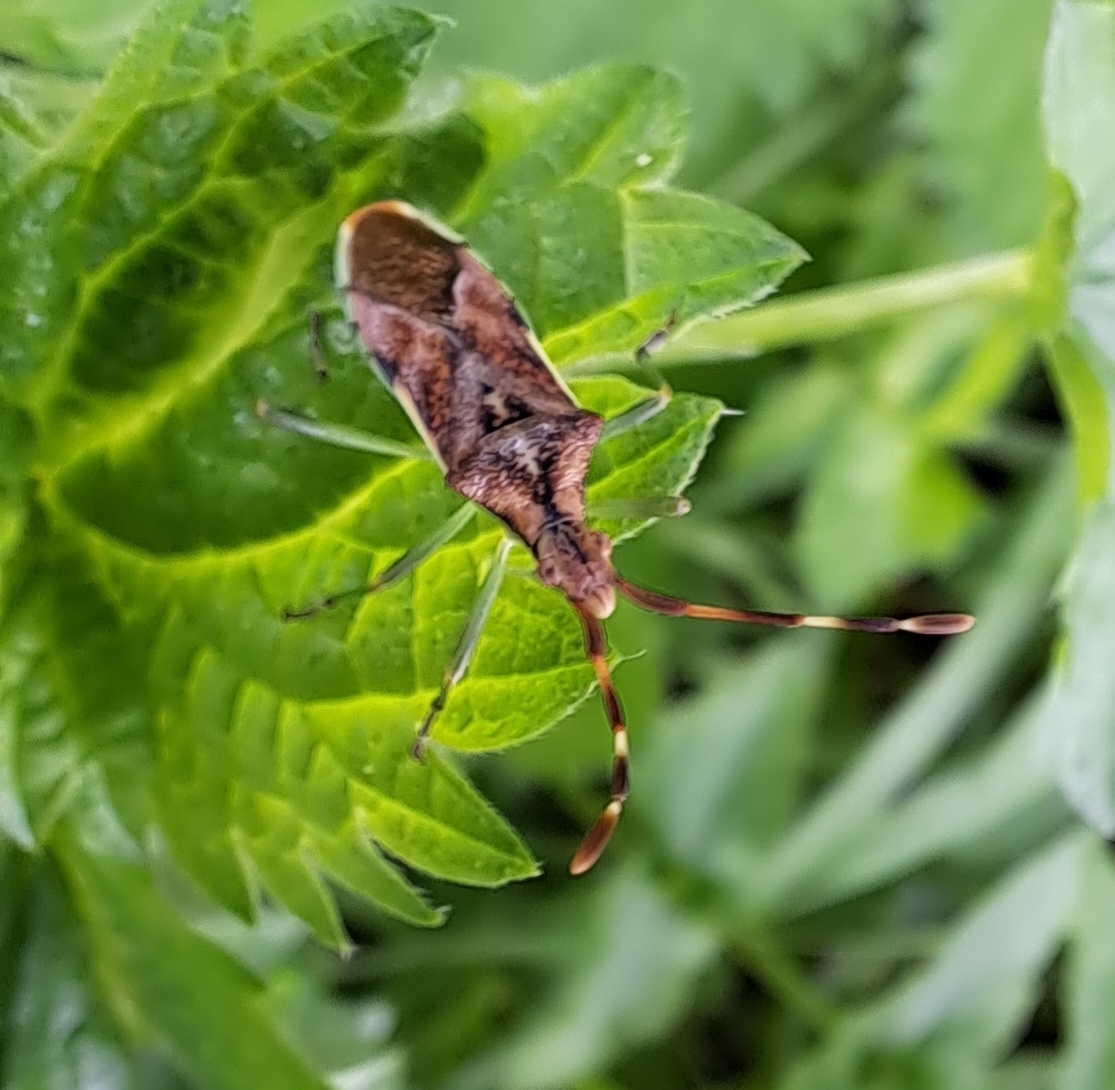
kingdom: Animalia
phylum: Arthropoda
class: Insecta
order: Hemiptera
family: Coreidae
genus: Gonocerus
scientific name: Gonocerus juniperi
